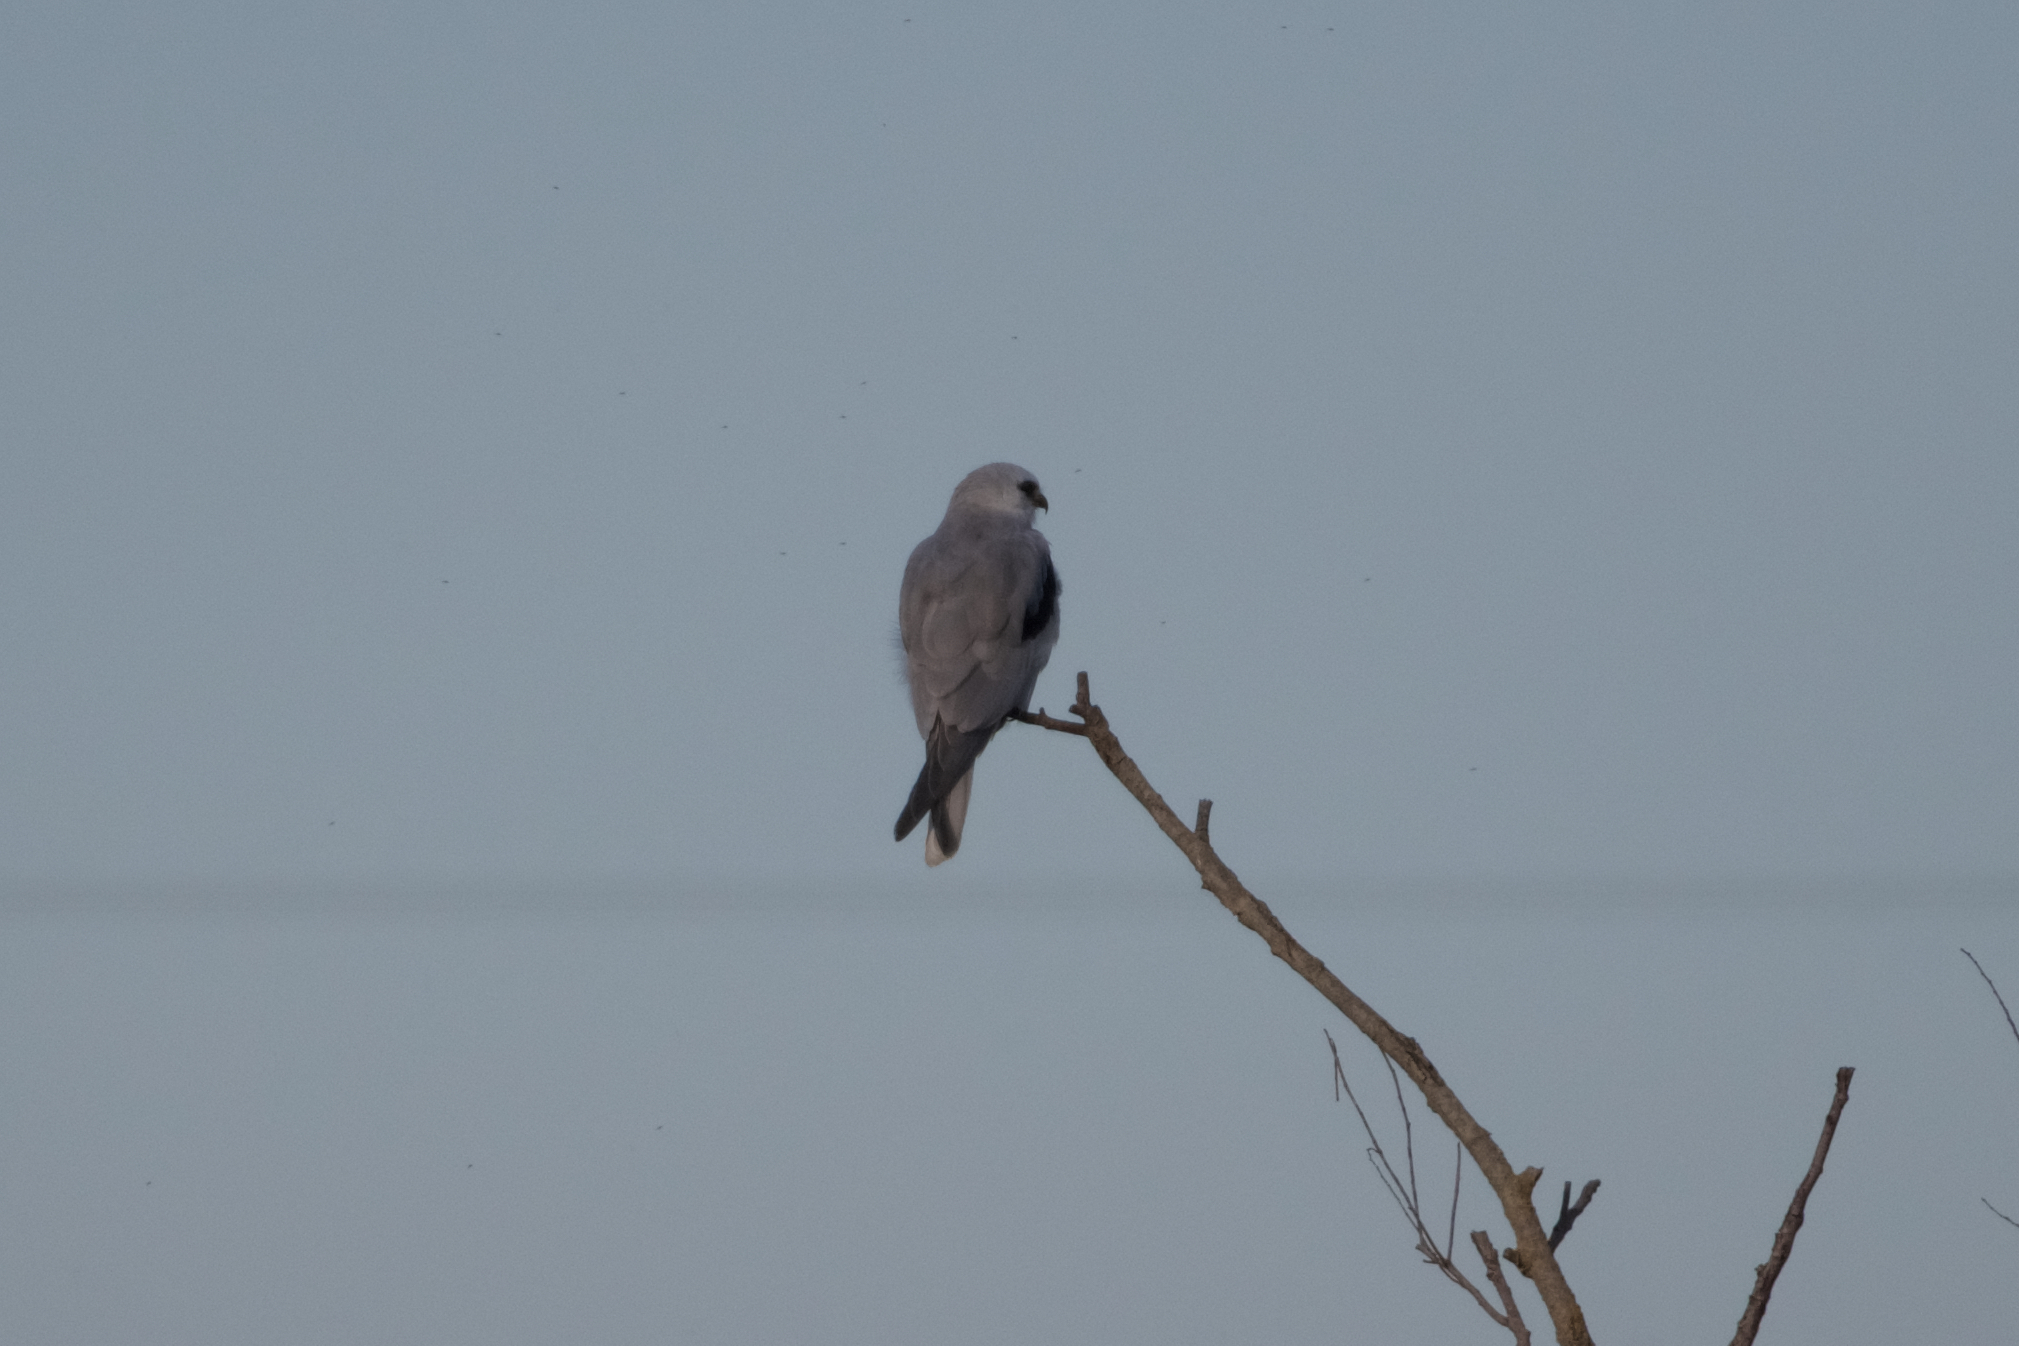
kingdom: Animalia
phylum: Chordata
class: Aves
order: Accipitriformes
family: Accipitridae
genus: Elanus
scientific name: Elanus leucurus
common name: White-tailed kite
